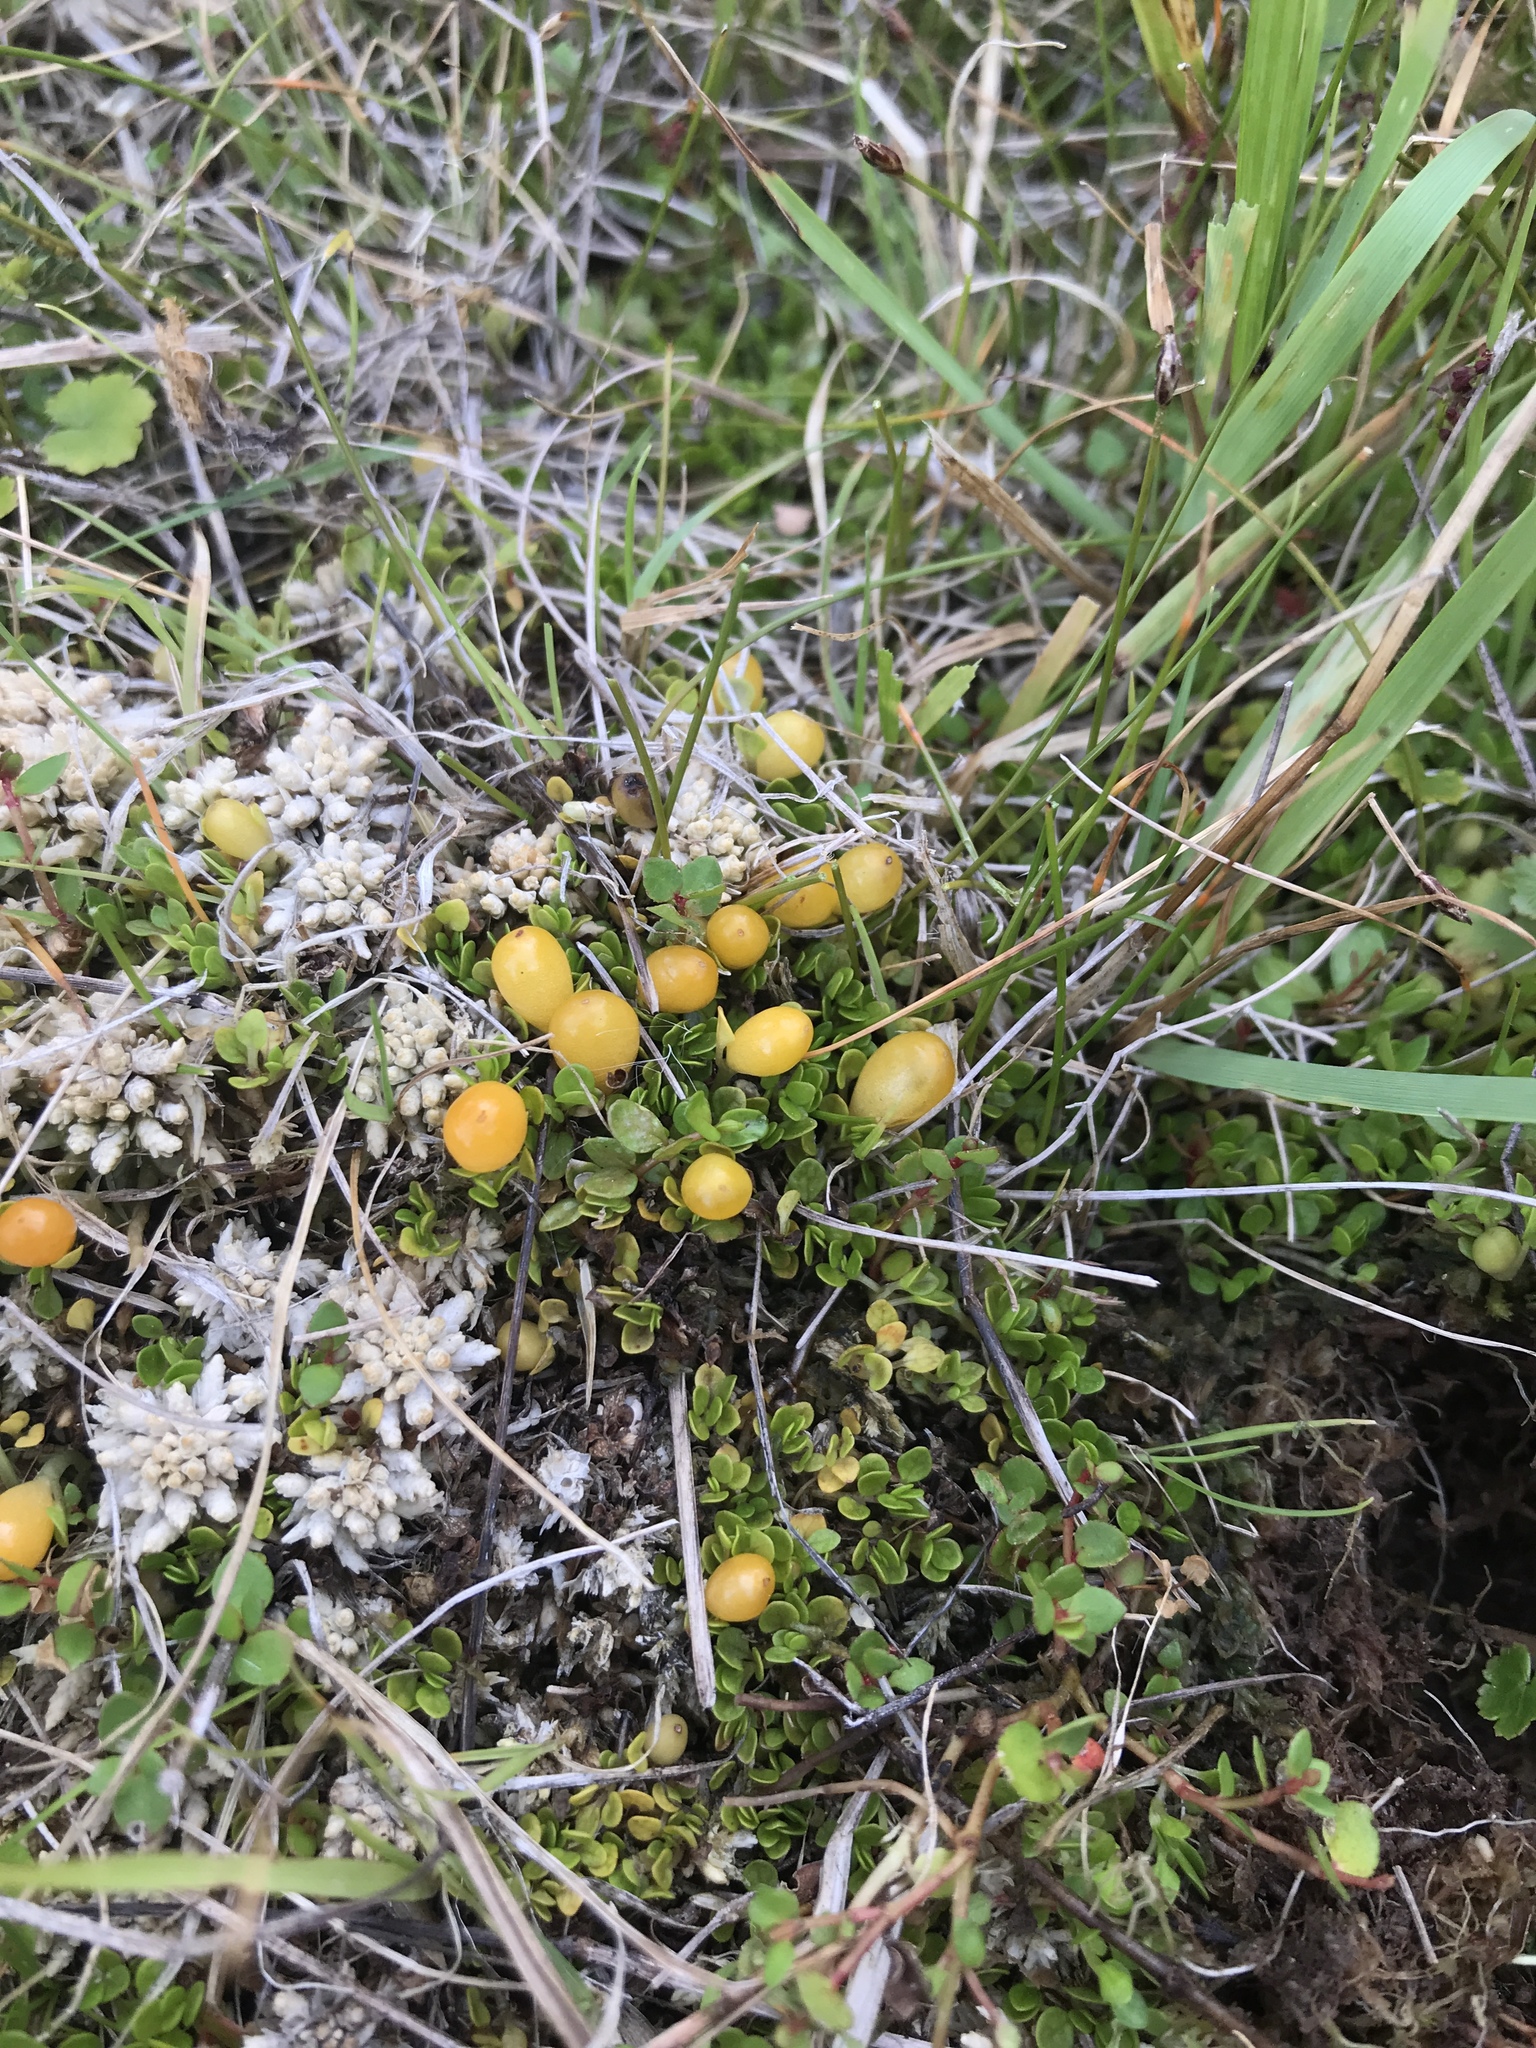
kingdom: Plantae
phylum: Tracheophyta
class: Magnoliopsida
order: Gentianales
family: Rubiaceae
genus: Nertera
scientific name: Nertera balfouriana
